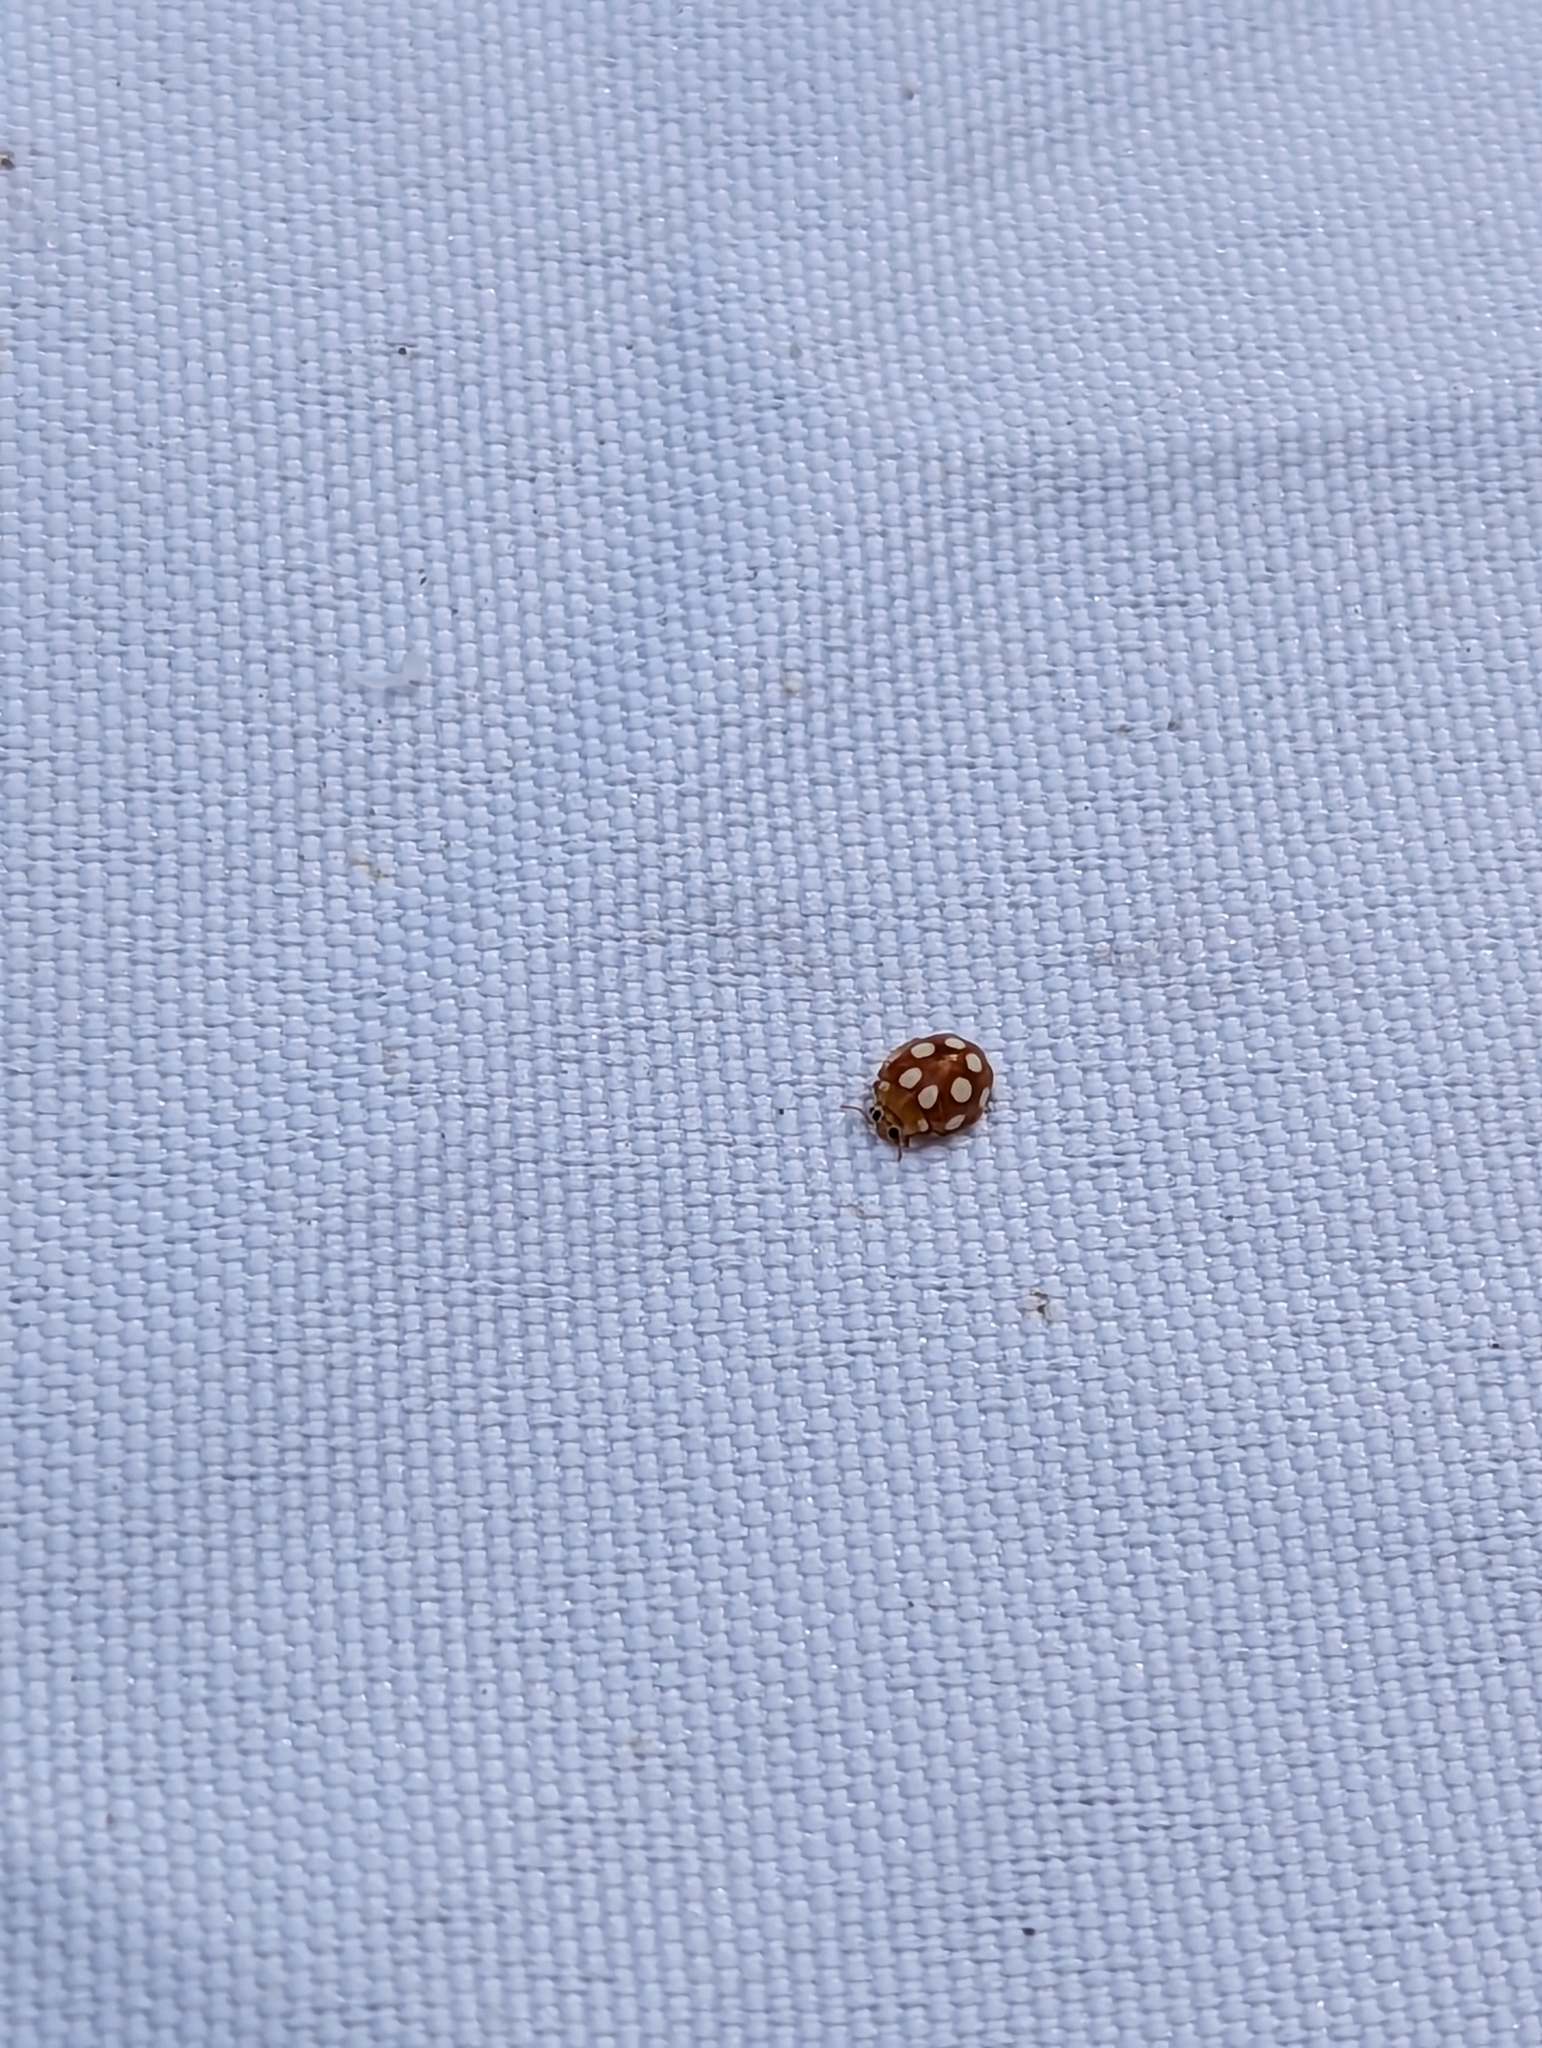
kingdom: Animalia
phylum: Arthropoda
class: Insecta
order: Coleoptera
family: Coccinellidae
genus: Vibidia
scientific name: Vibidia duodecimguttata
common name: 12-spot ladybird
